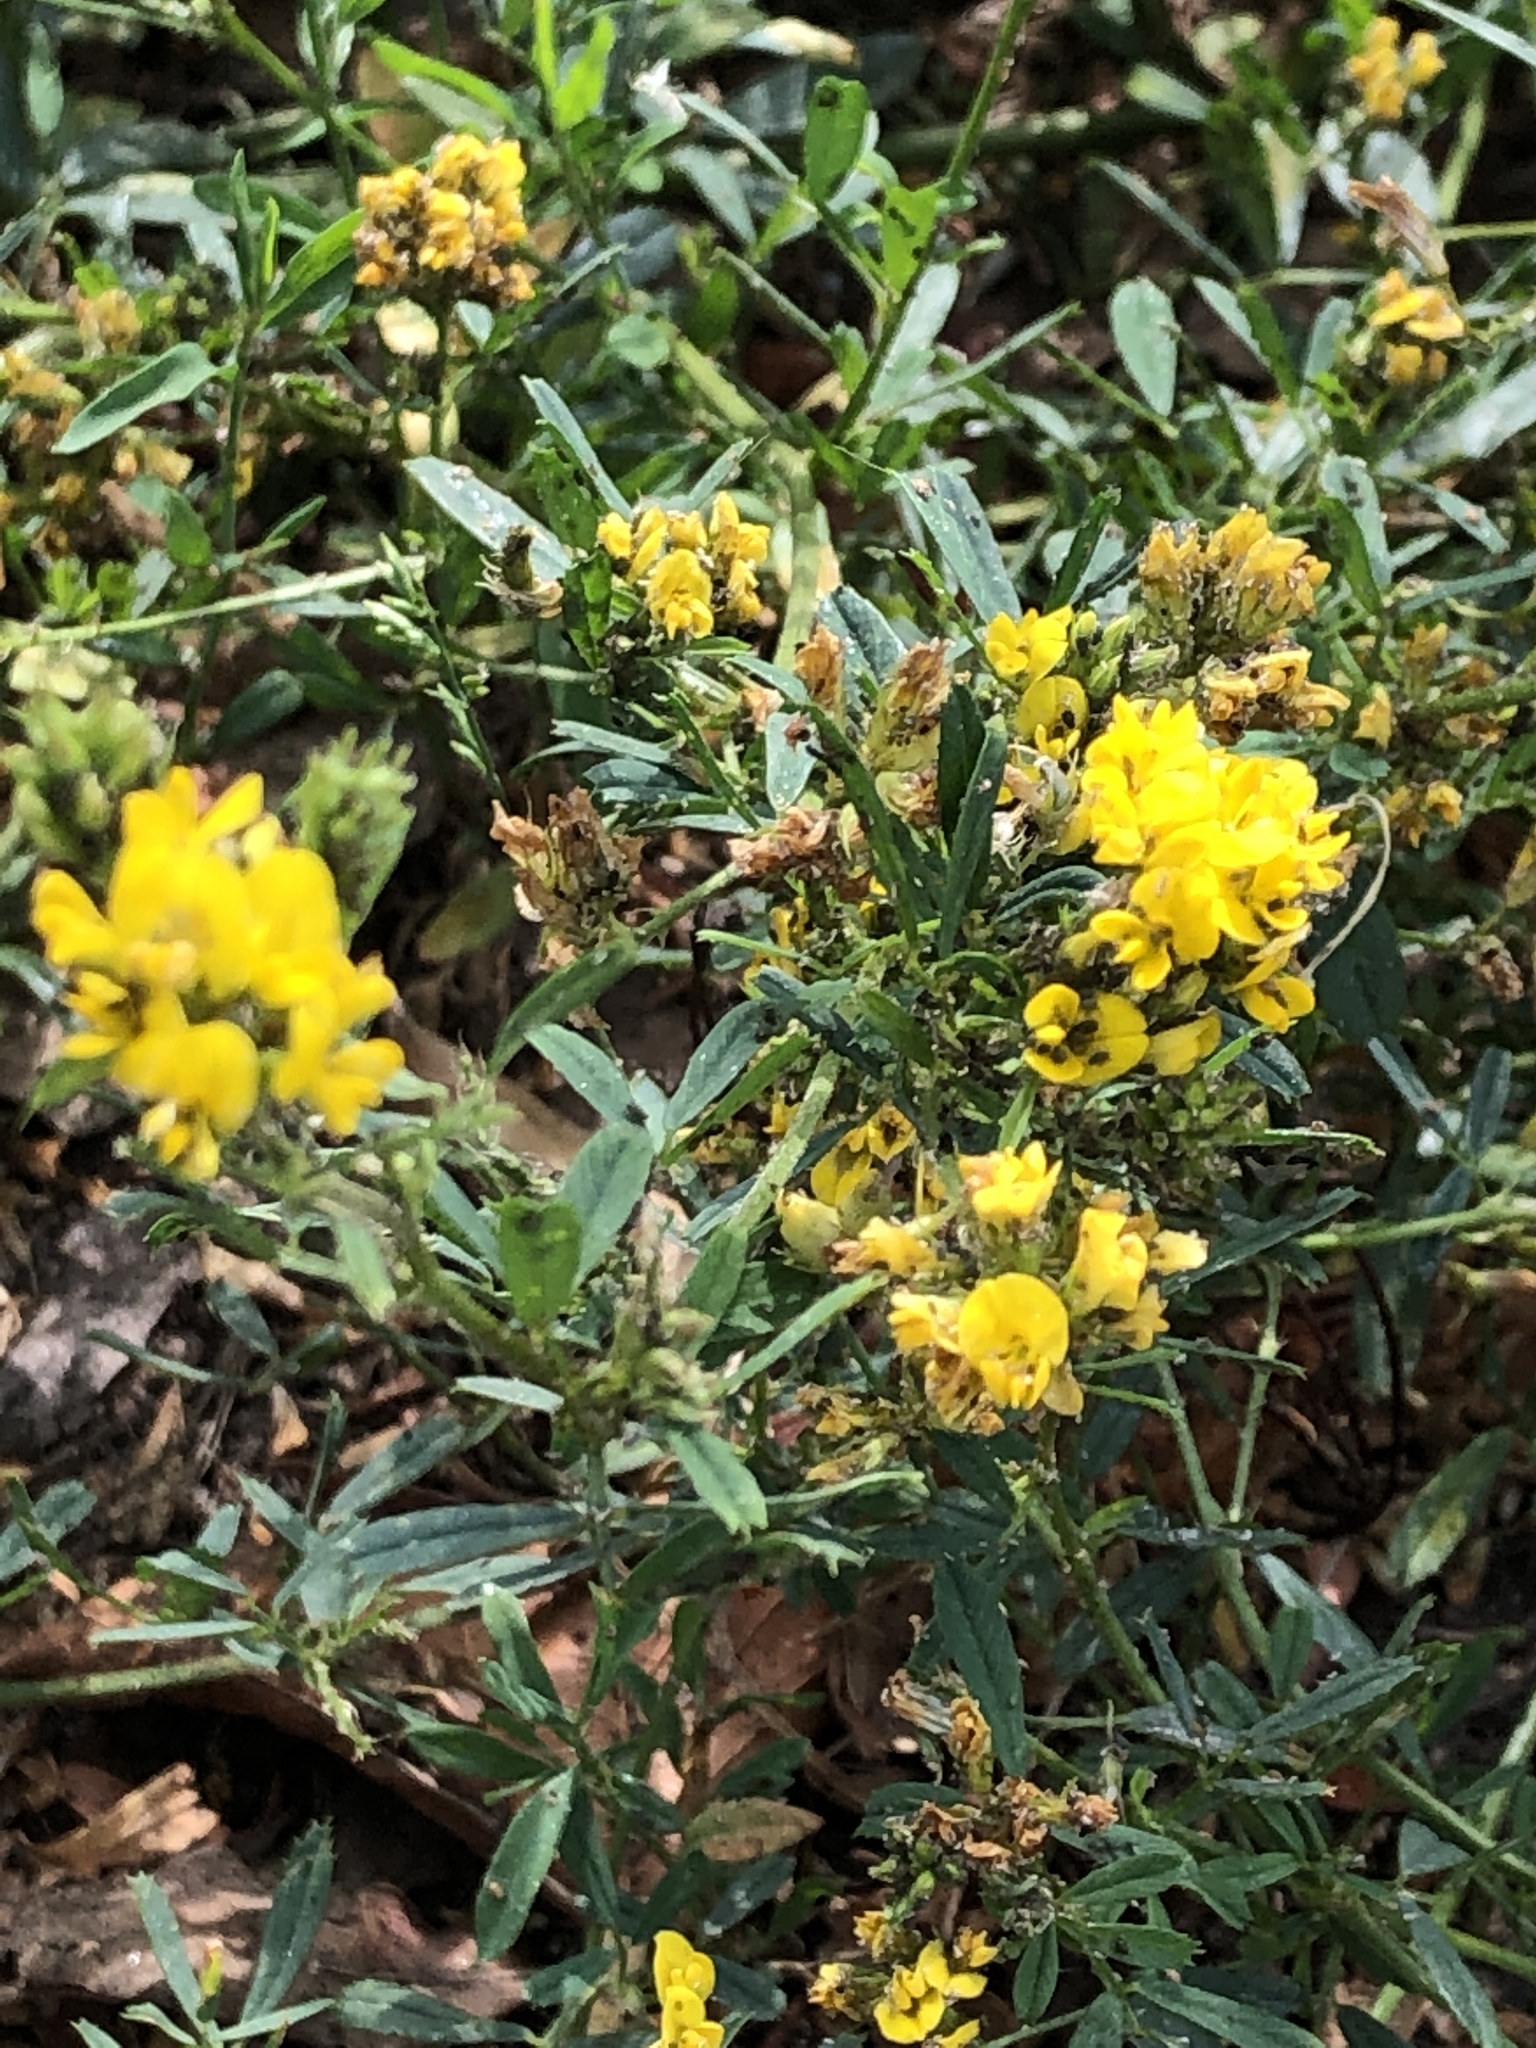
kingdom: Plantae
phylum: Tracheophyta
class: Magnoliopsida
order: Fabales
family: Fabaceae
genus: Medicago
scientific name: Medicago falcata
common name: Sickle medick
